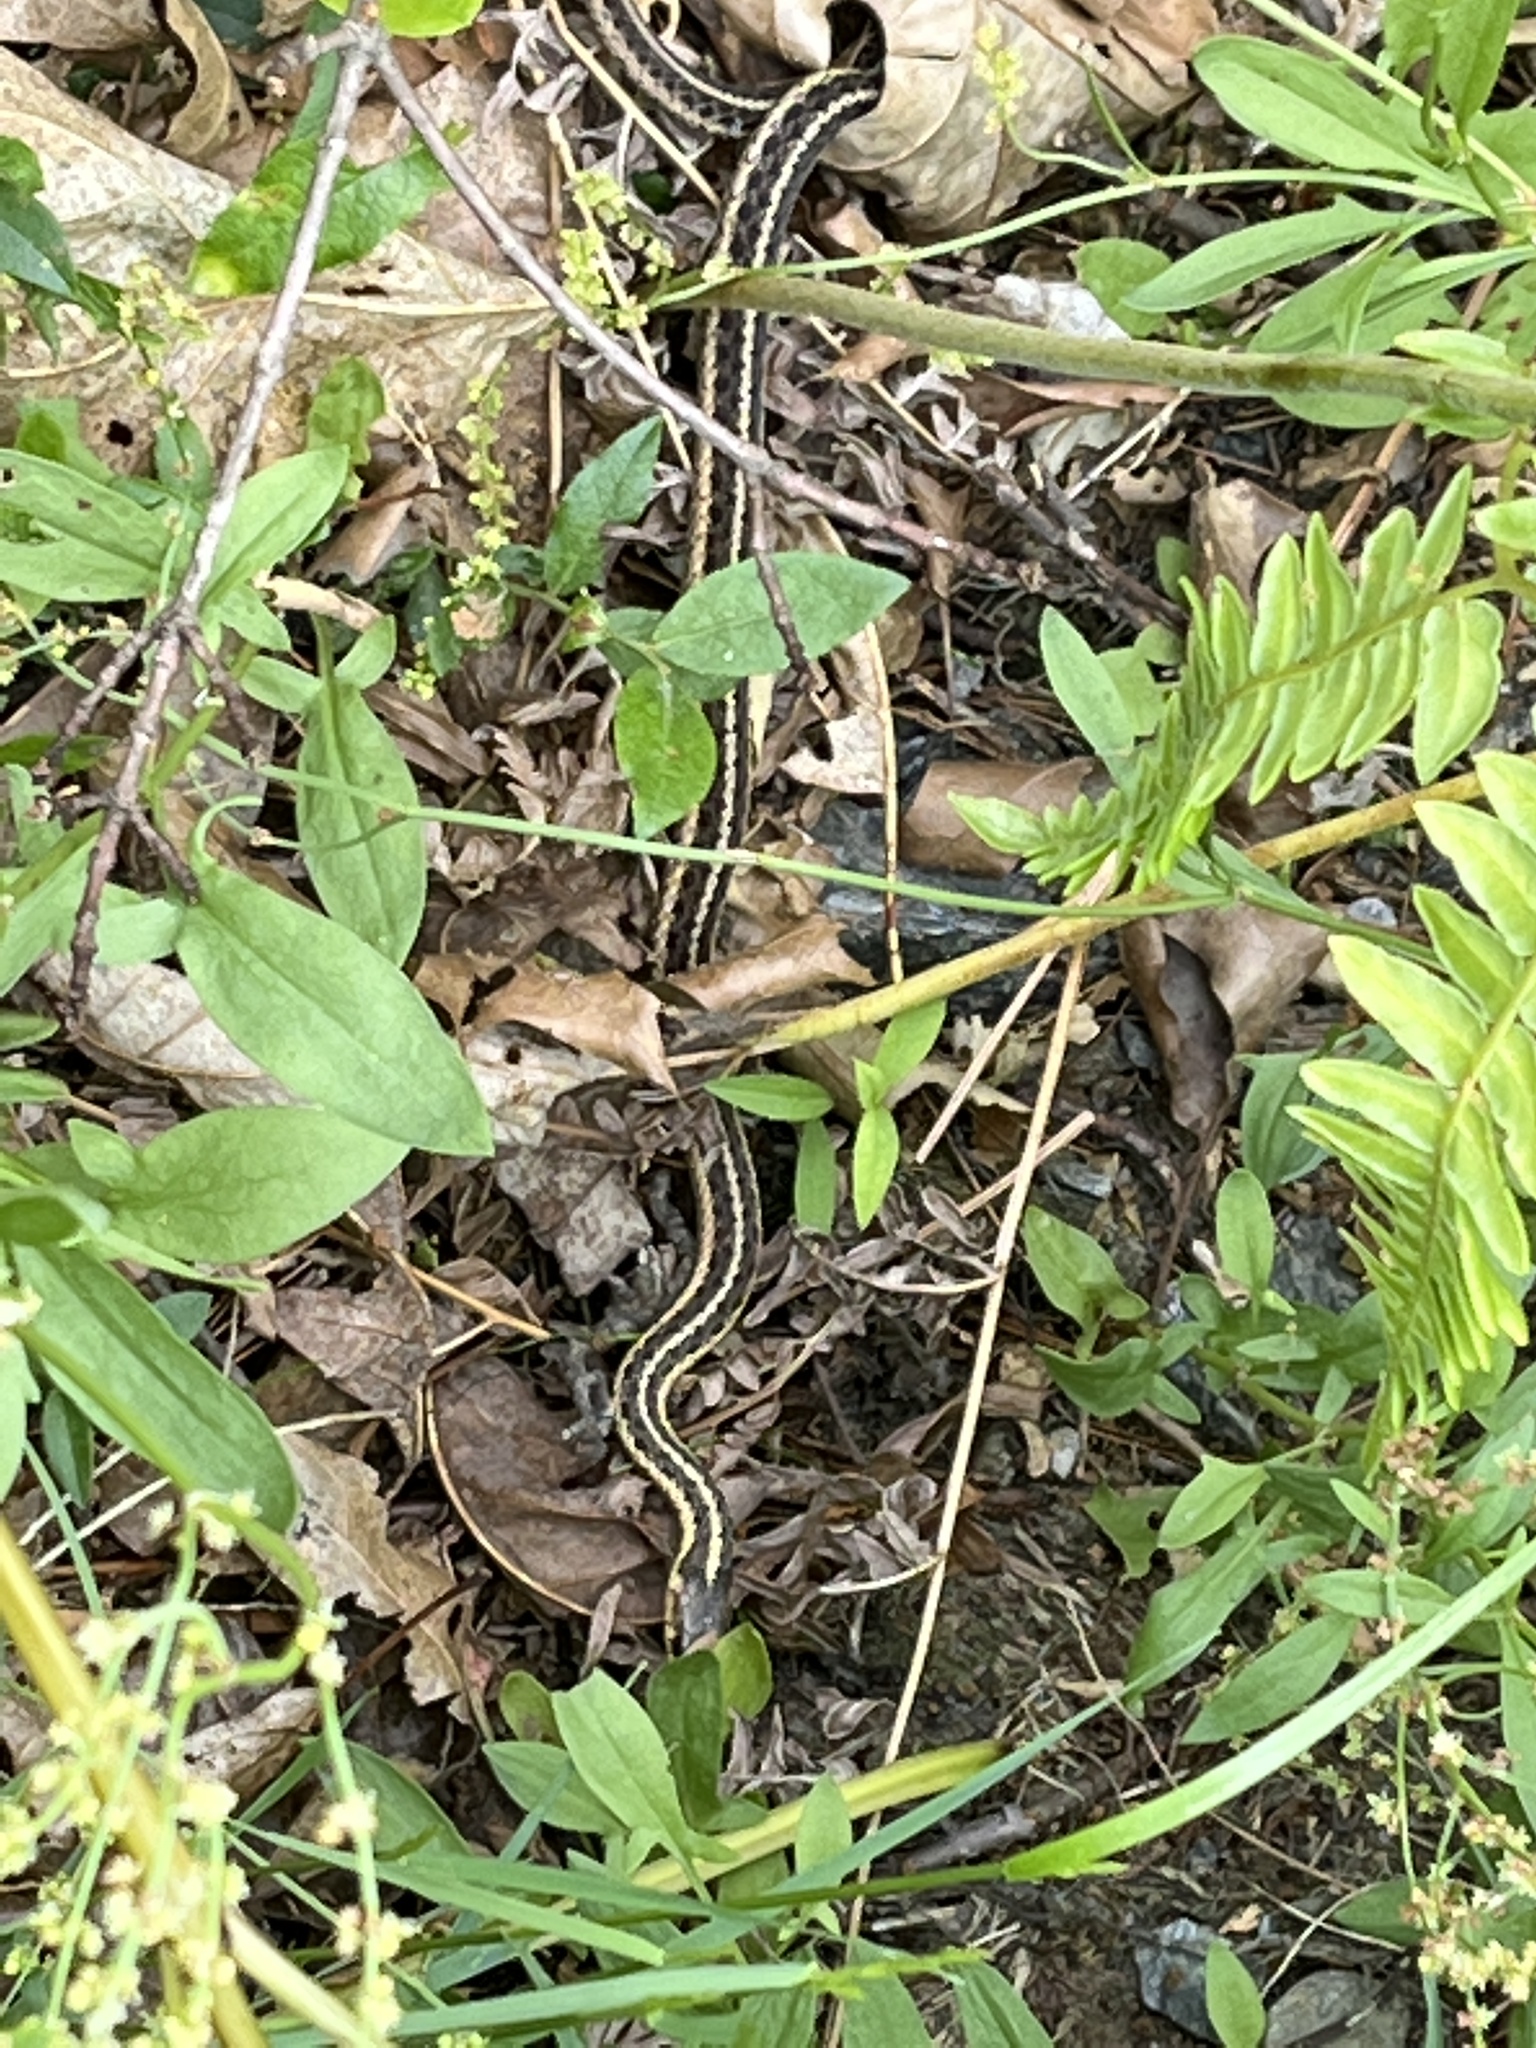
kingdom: Animalia
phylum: Chordata
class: Squamata
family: Colubridae
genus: Thamnophis
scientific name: Thamnophis sirtalis
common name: Common garter snake
